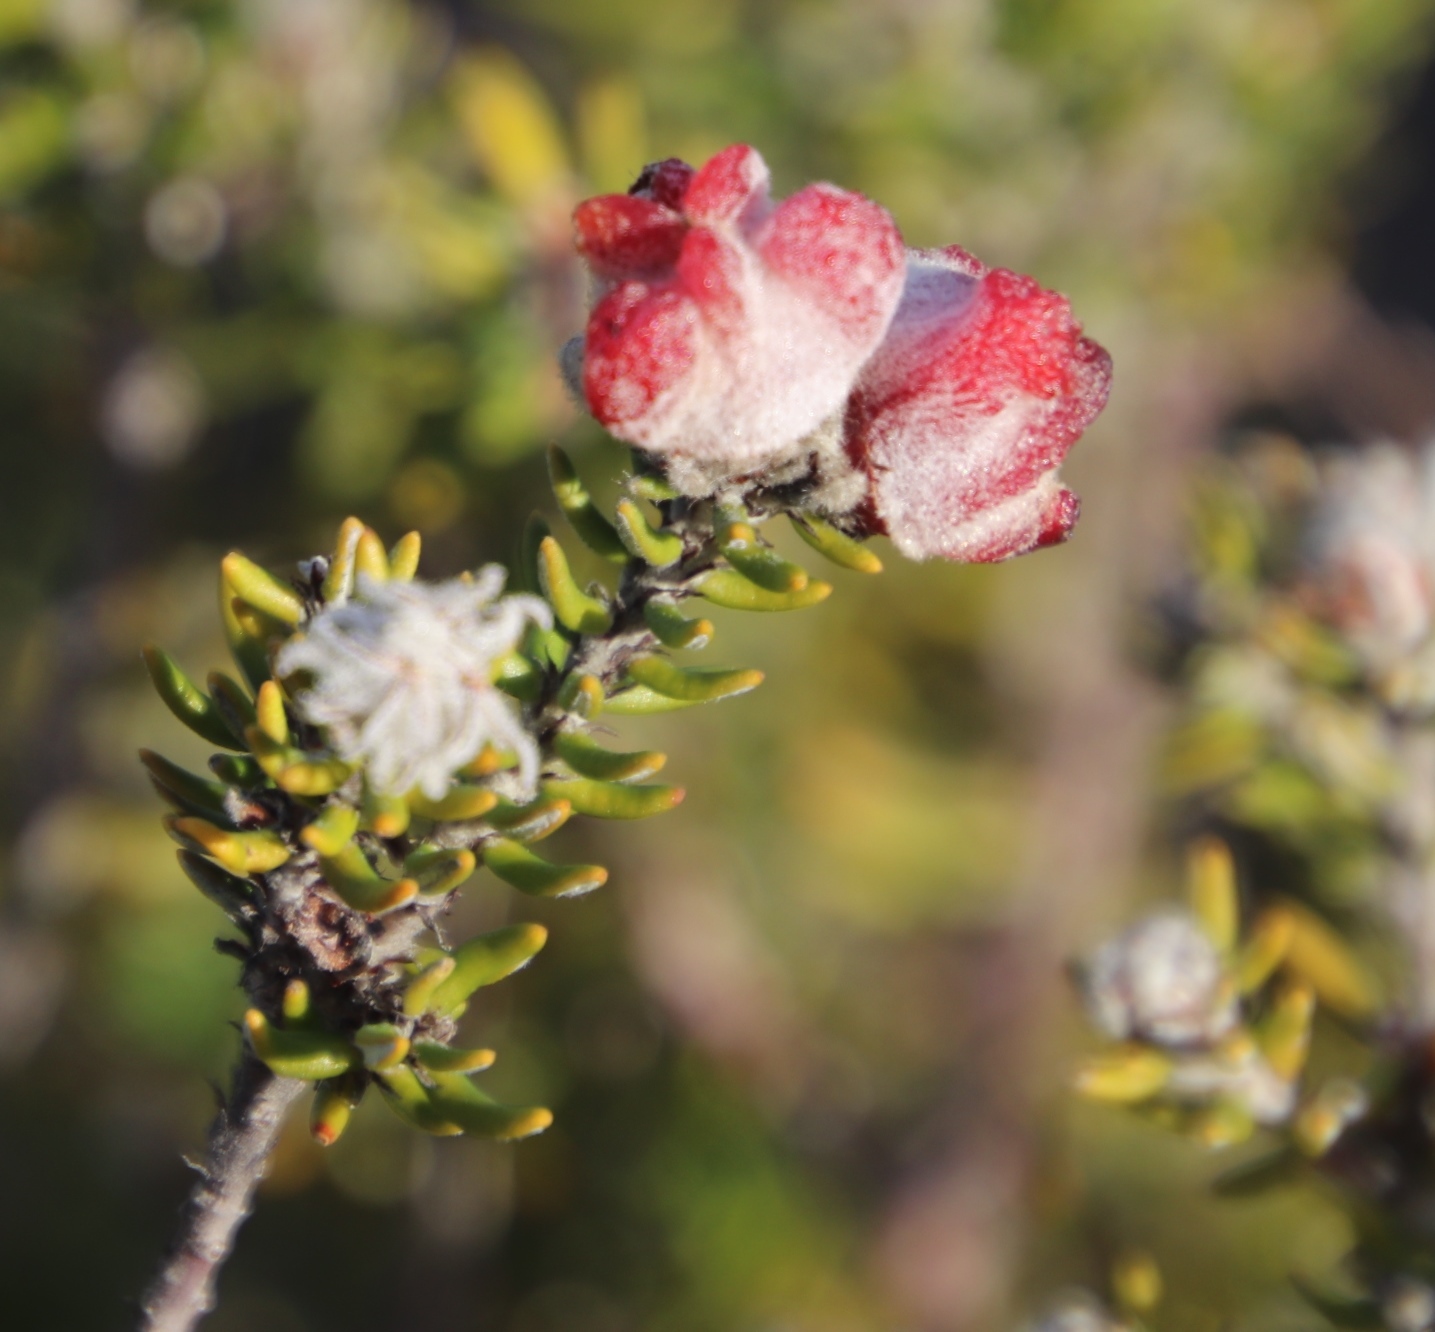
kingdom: Plantae
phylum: Tracheophyta
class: Magnoliopsida
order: Rosales
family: Rhamnaceae
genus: Trichocephalus
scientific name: Trichocephalus stipularis
